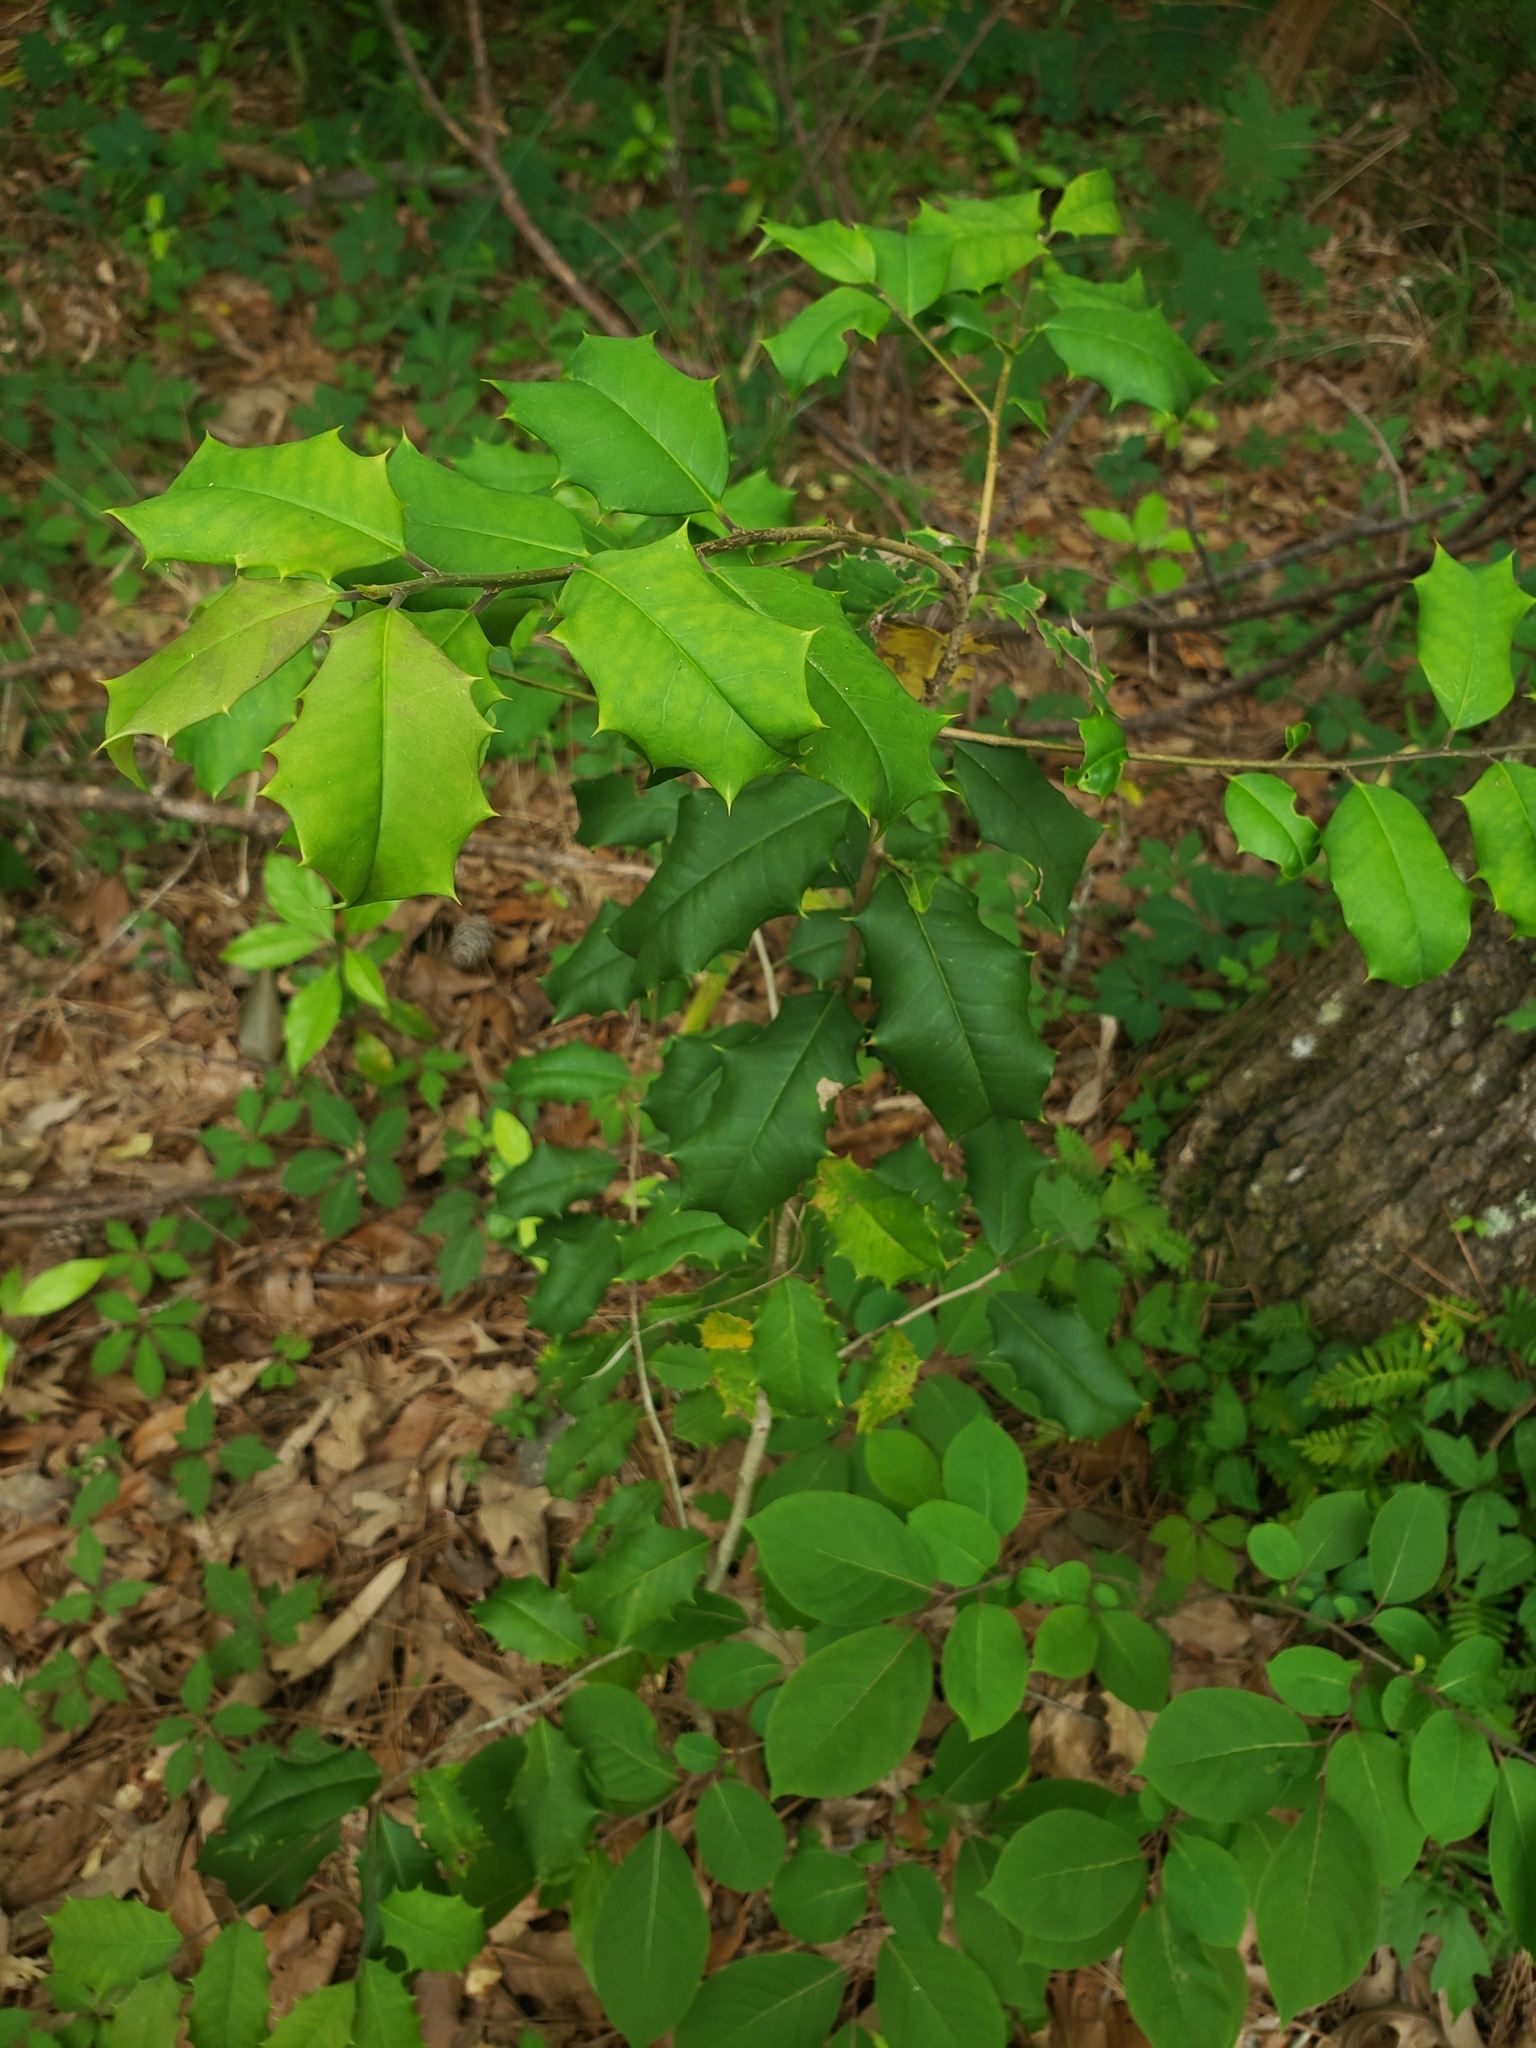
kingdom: Plantae
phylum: Tracheophyta
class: Magnoliopsida
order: Aquifoliales
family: Aquifoliaceae
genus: Ilex
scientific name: Ilex opaca
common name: American holly
